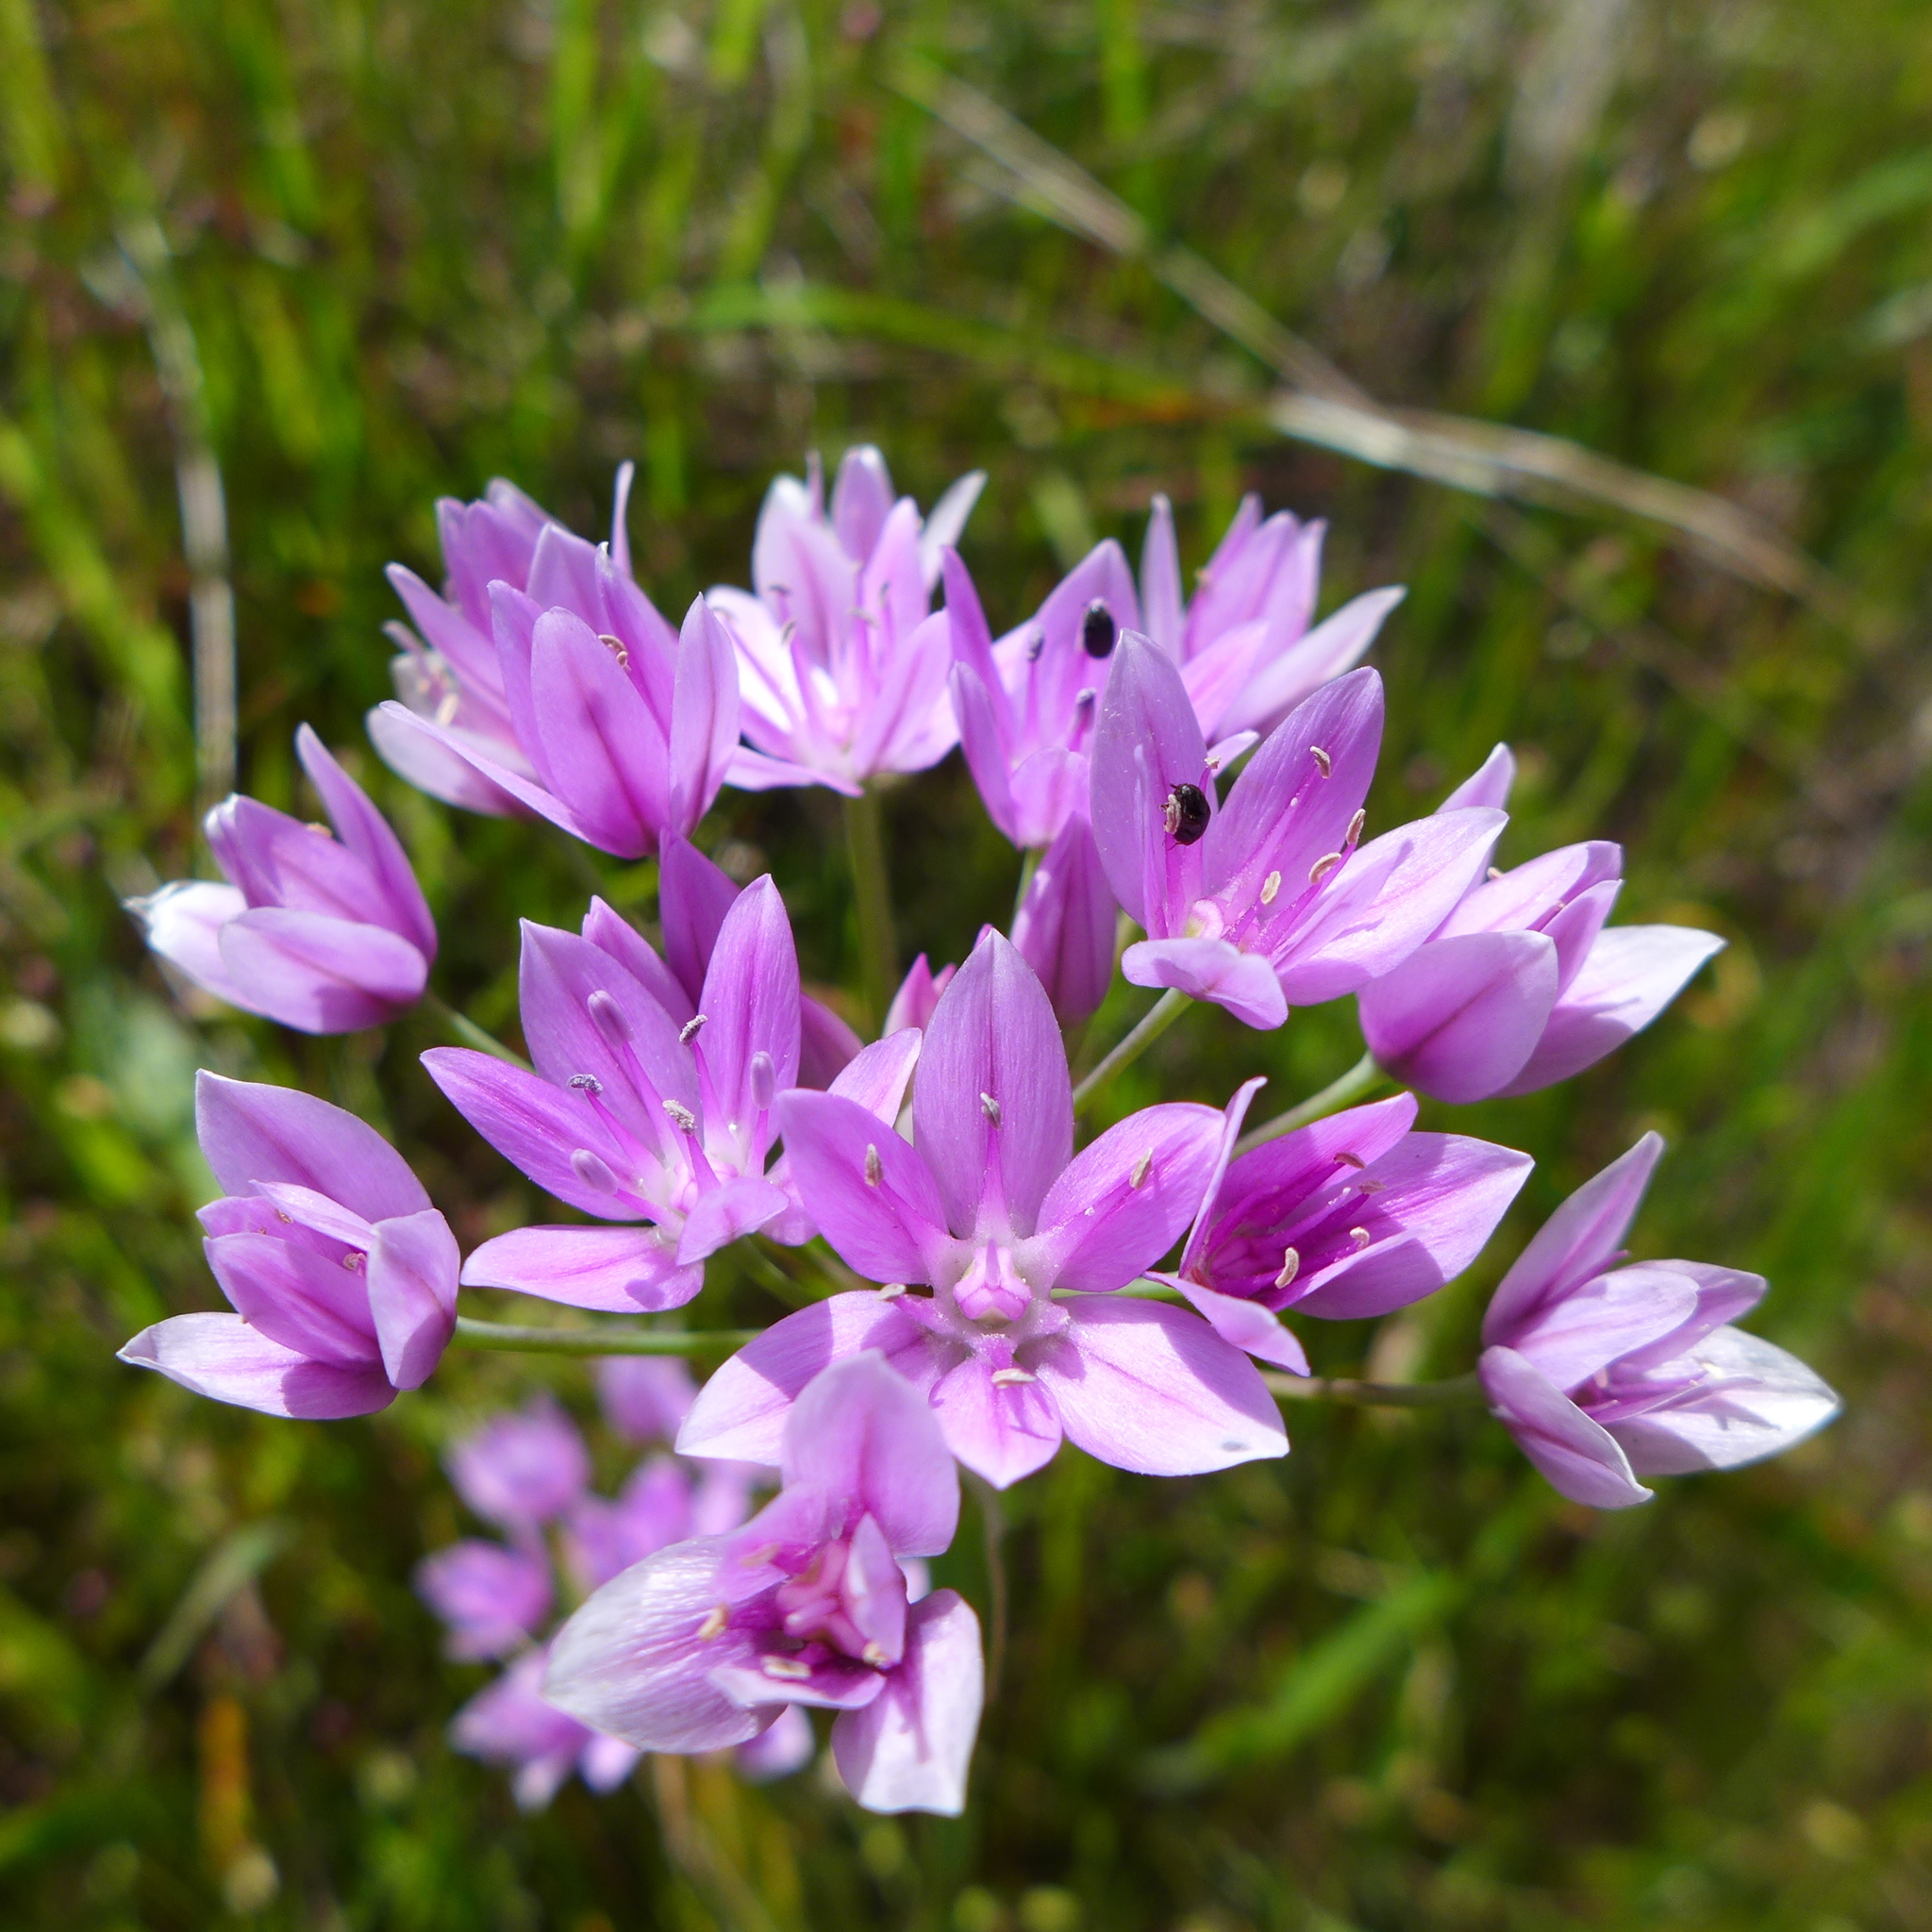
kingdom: Plantae
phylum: Tracheophyta
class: Liliopsida
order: Asparagales
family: Amaryllidaceae
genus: Allium
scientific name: Allium unifolium
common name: American garlic
